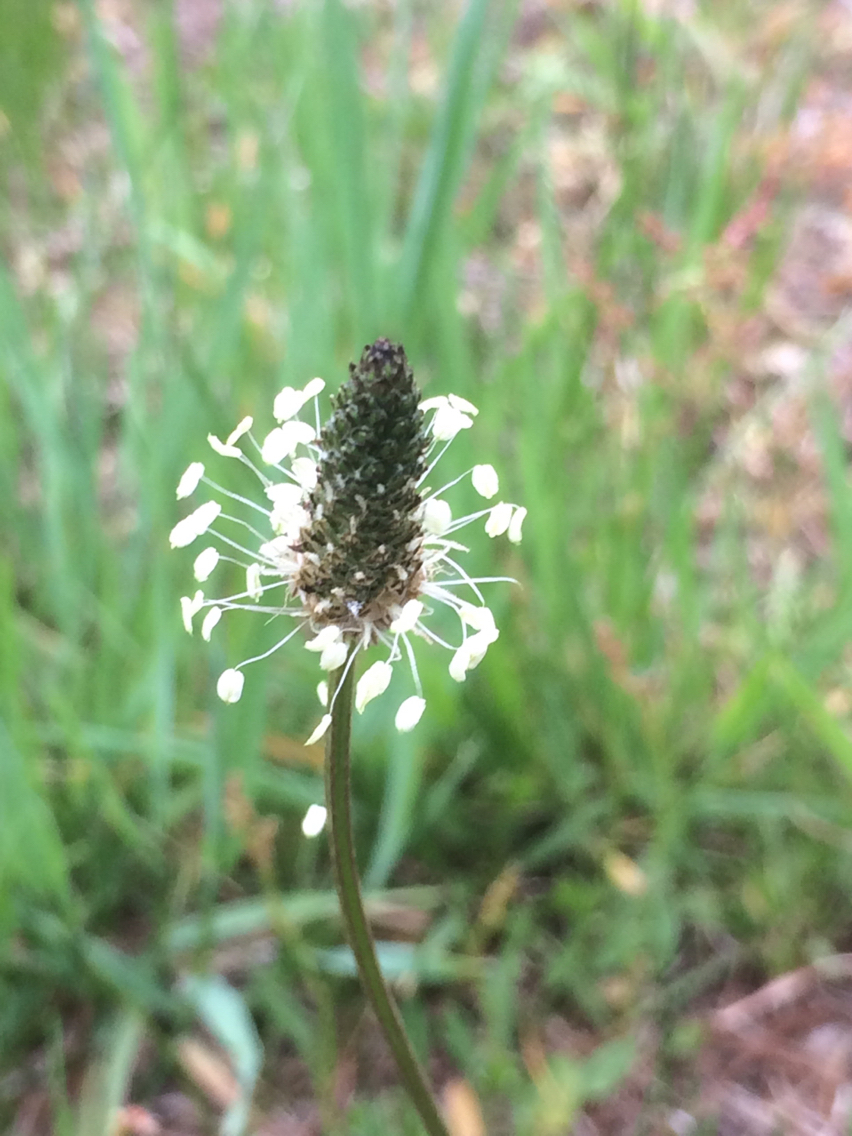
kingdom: Plantae
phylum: Tracheophyta
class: Magnoliopsida
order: Lamiales
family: Plantaginaceae
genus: Plantago
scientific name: Plantago lanceolata
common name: Ribwort plantain
